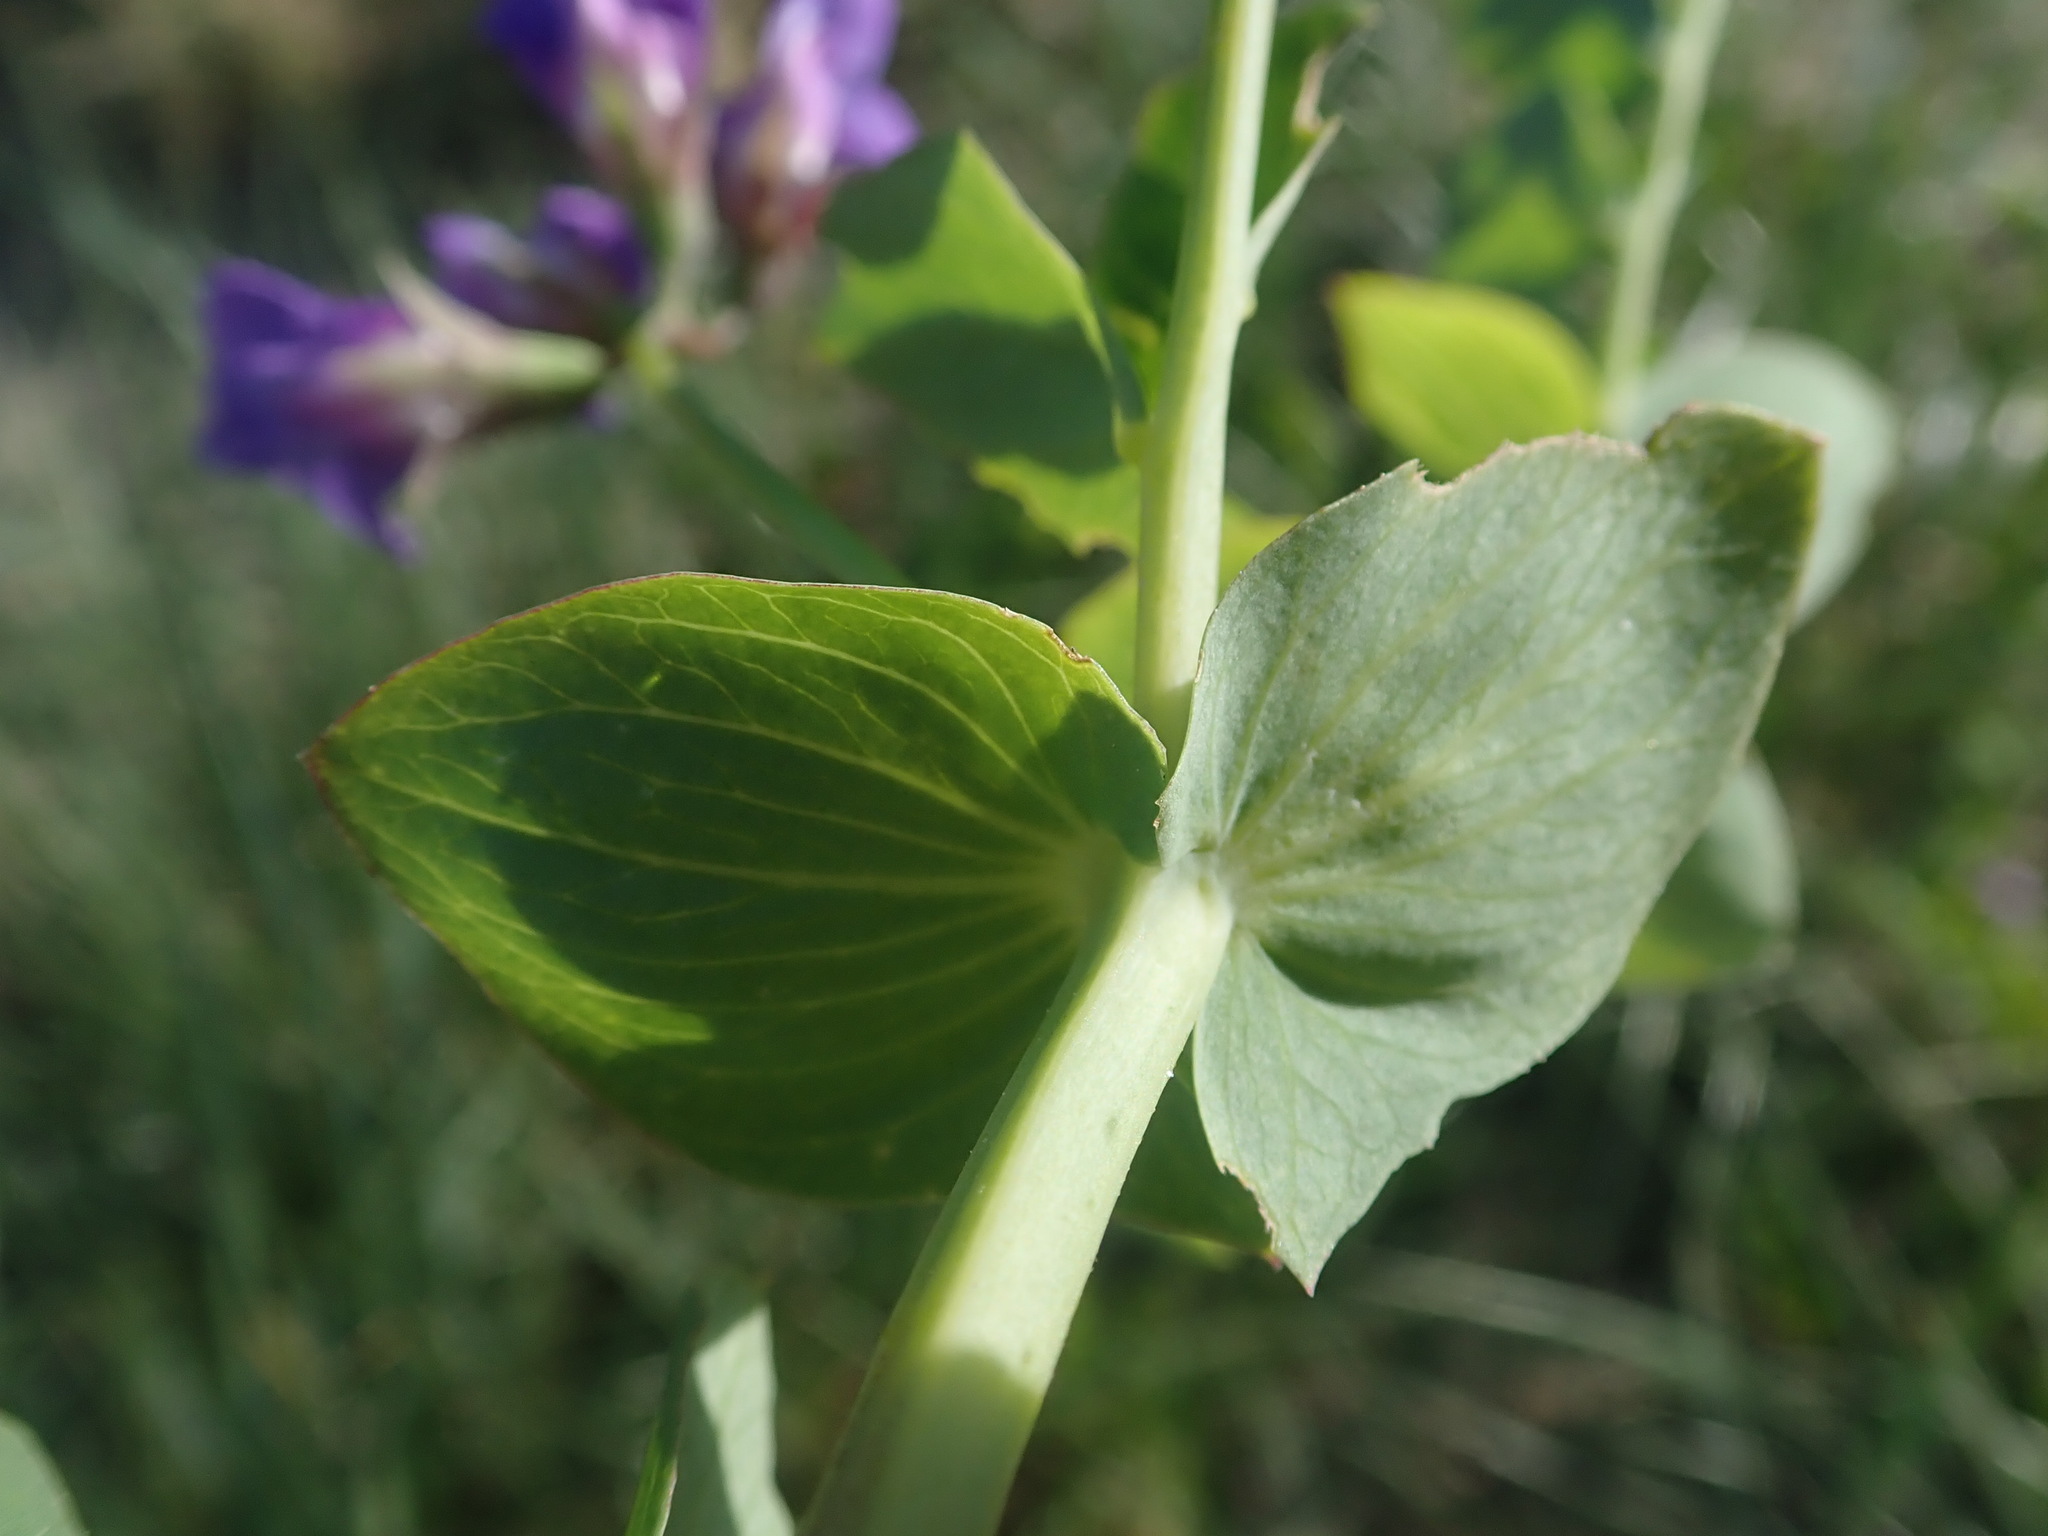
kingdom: Plantae
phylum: Tracheophyta
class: Magnoliopsida
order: Fabales
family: Fabaceae
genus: Lathyrus
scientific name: Lathyrus japonicus
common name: Sea pea
